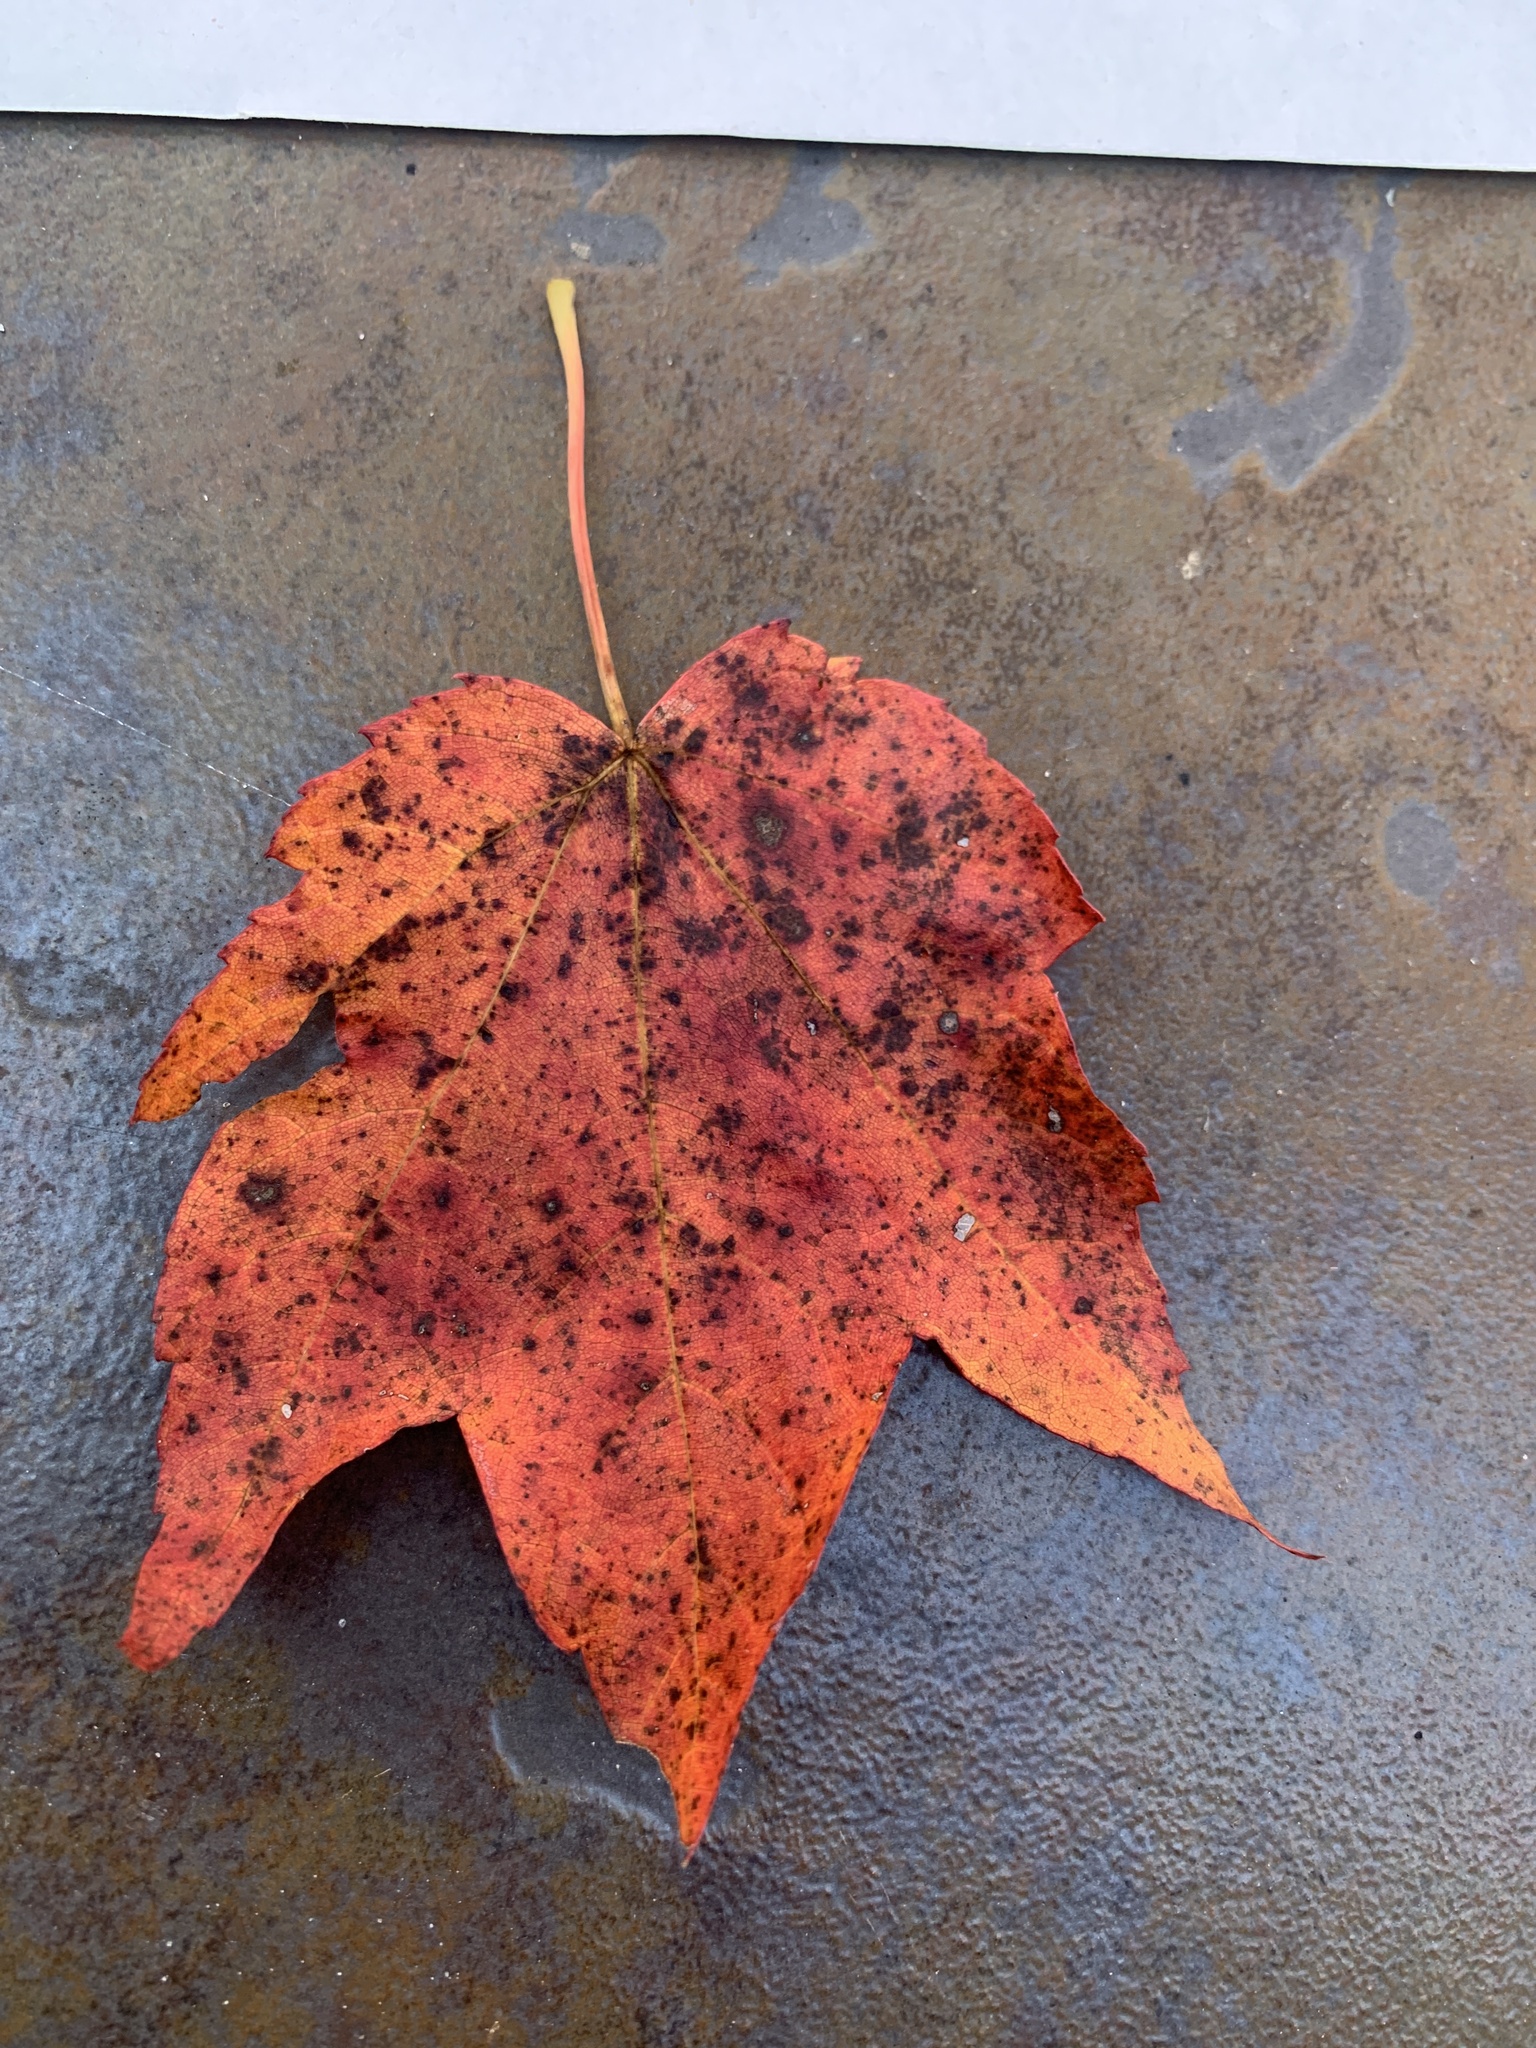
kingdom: Plantae
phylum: Tracheophyta
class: Magnoliopsida
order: Sapindales
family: Sapindaceae
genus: Acer
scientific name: Acer rubrum
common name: Red maple
